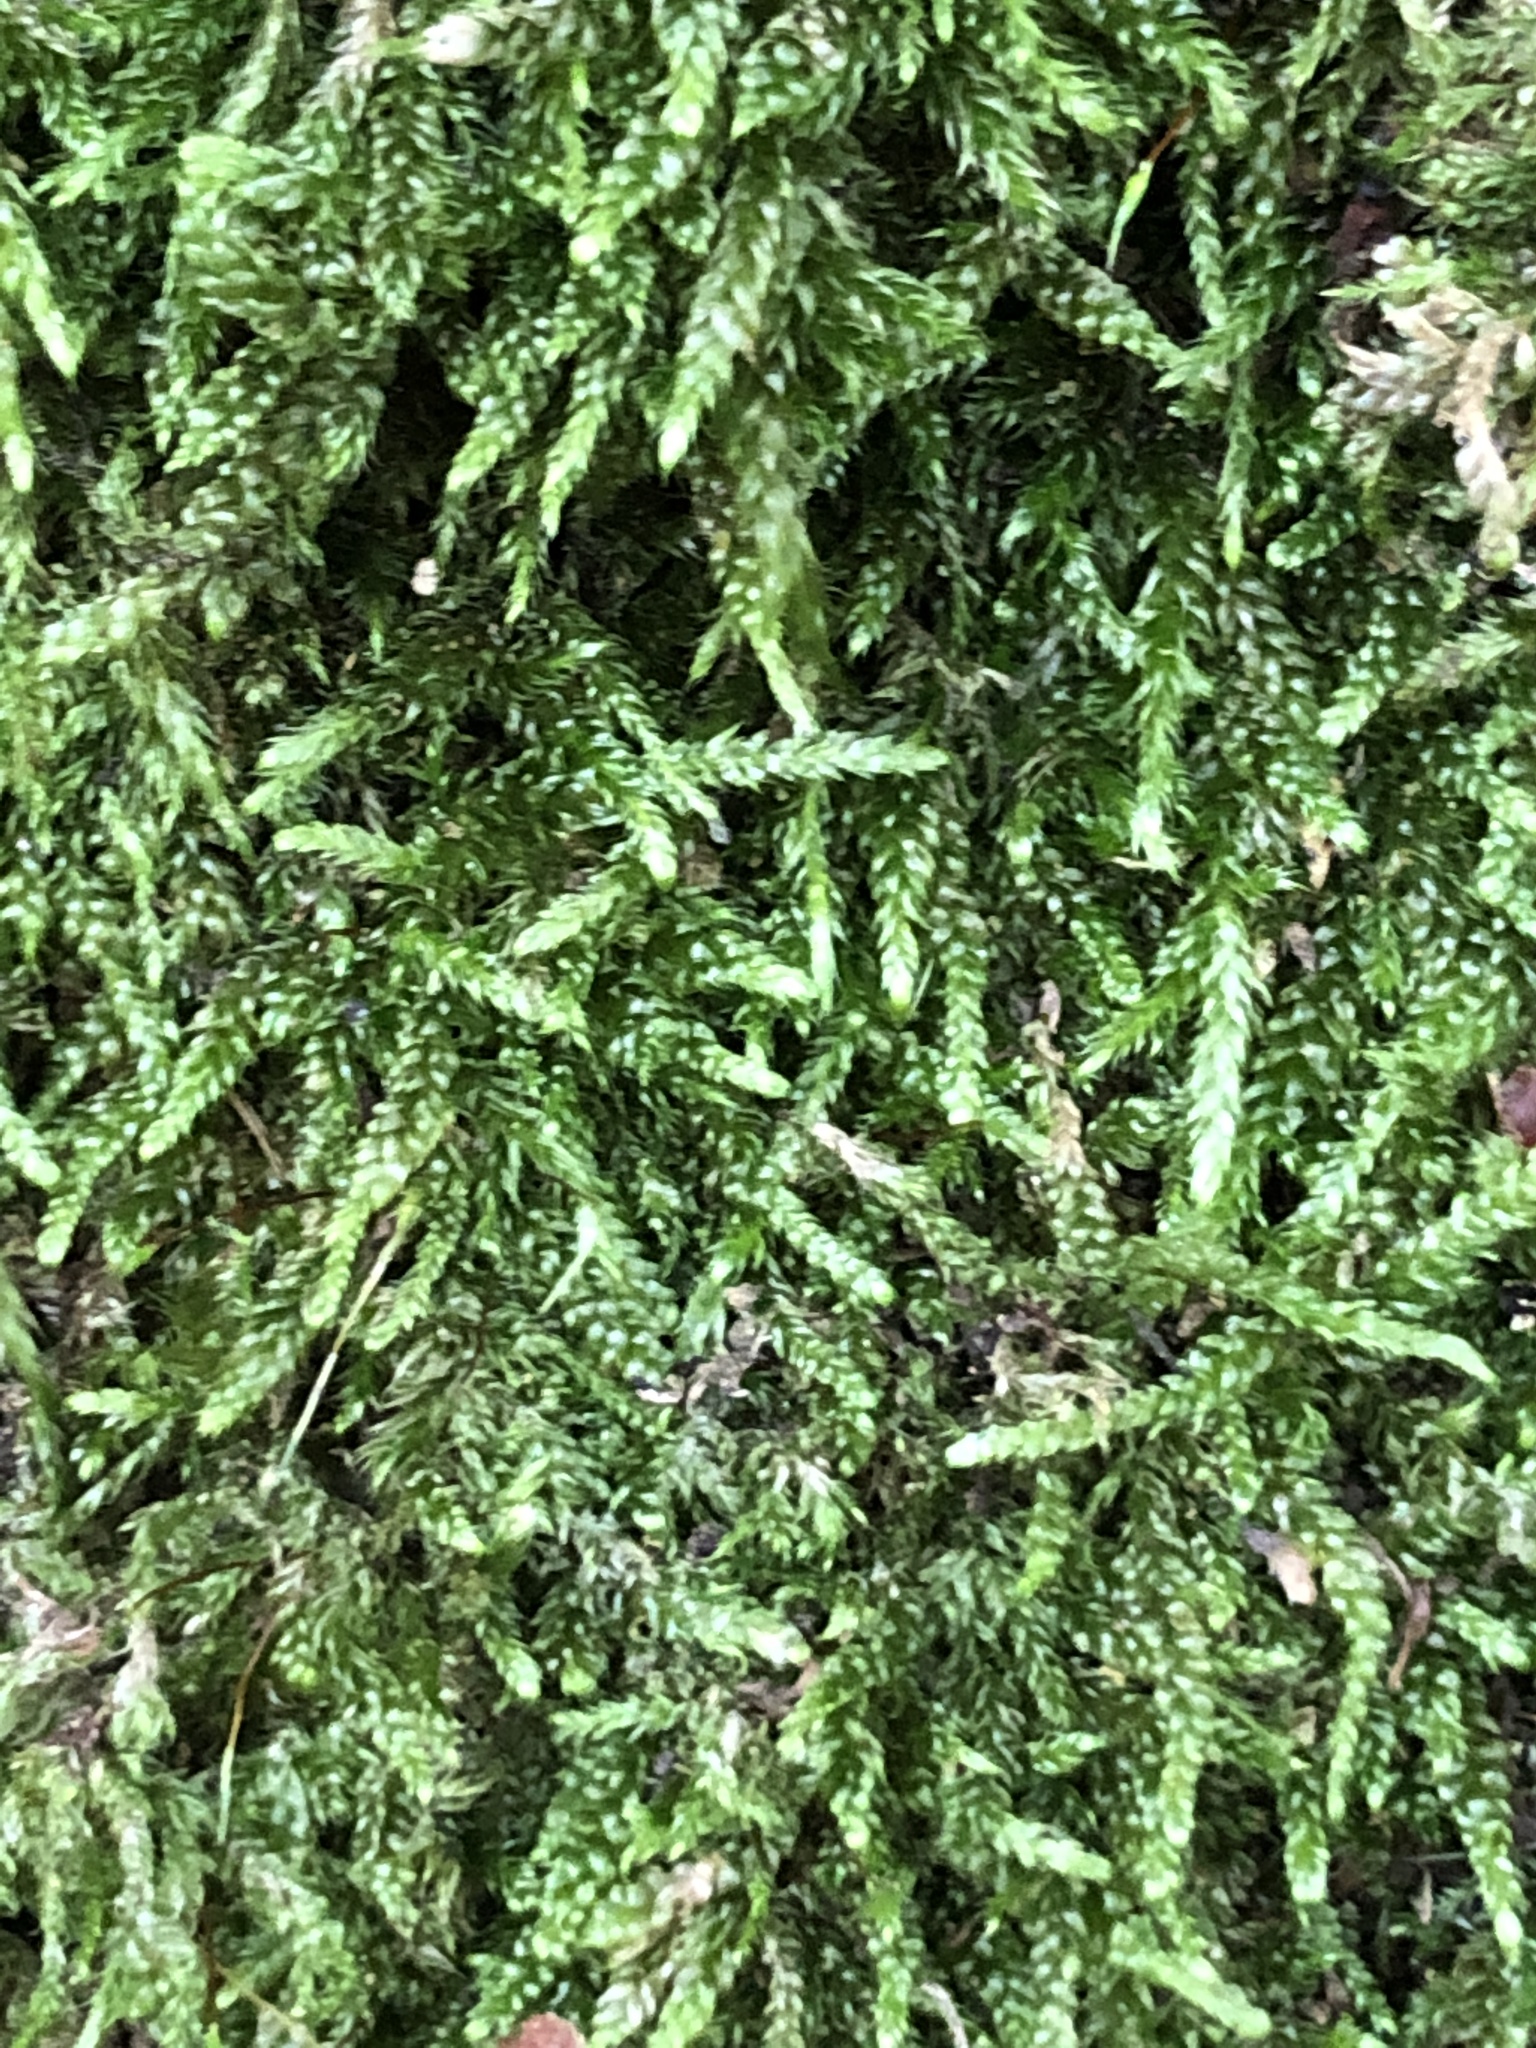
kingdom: Plantae
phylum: Bryophyta
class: Bryopsida
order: Hypnales
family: Hypnaceae
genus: Hypnum
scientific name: Hypnum cupressiforme
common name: Cypress-leaved plait-moss
